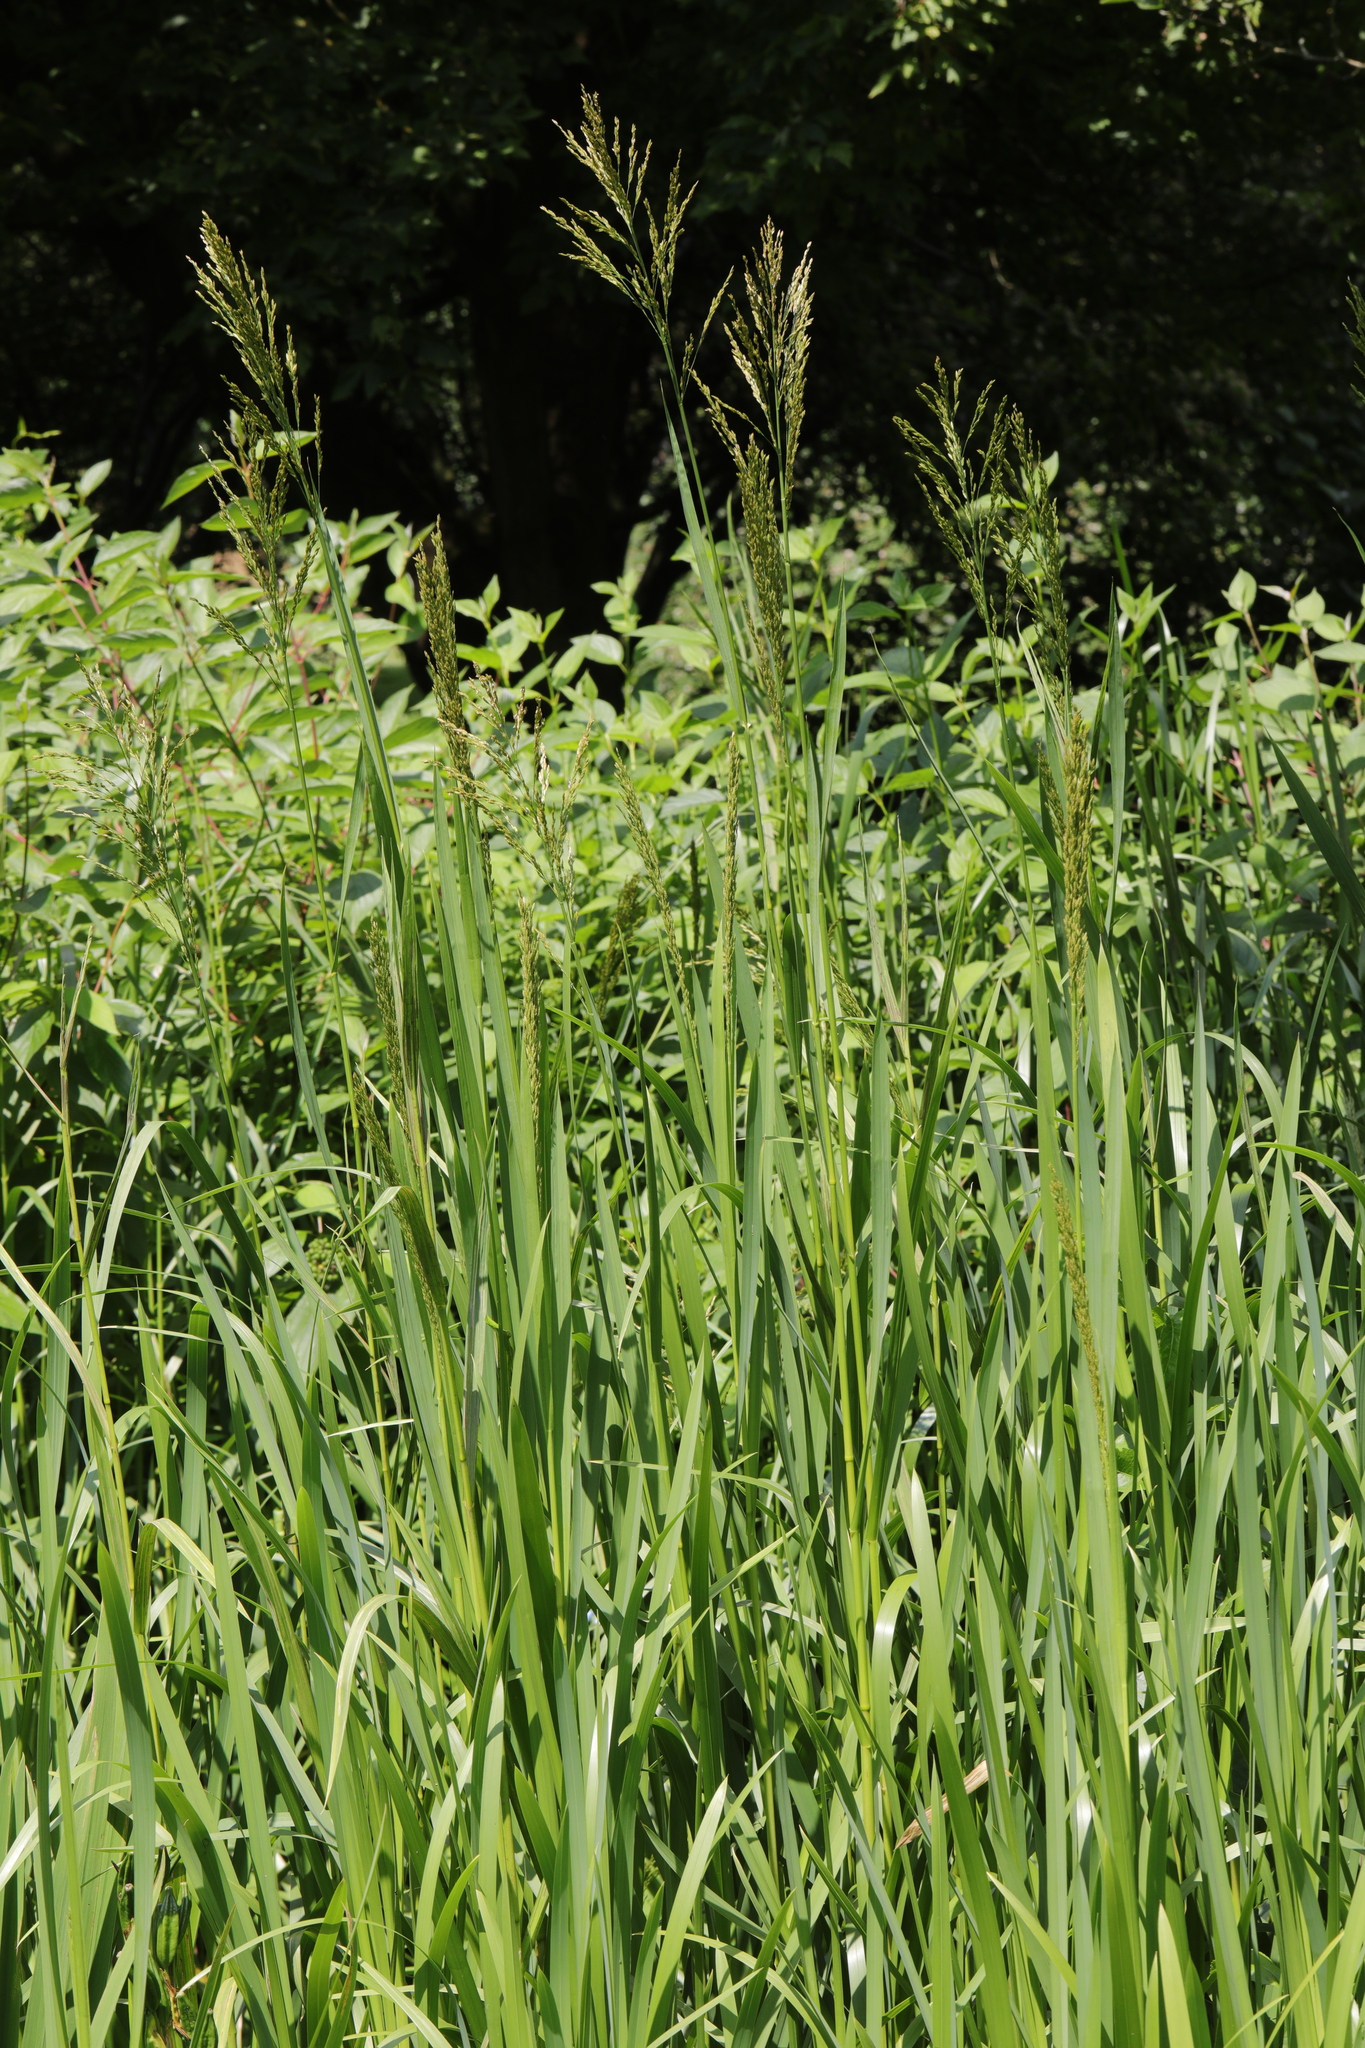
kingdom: Plantae
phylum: Tracheophyta
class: Liliopsida
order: Poales
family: Poaceae
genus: Glyceria
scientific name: Glyceria maxima
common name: Reed mannagrass
